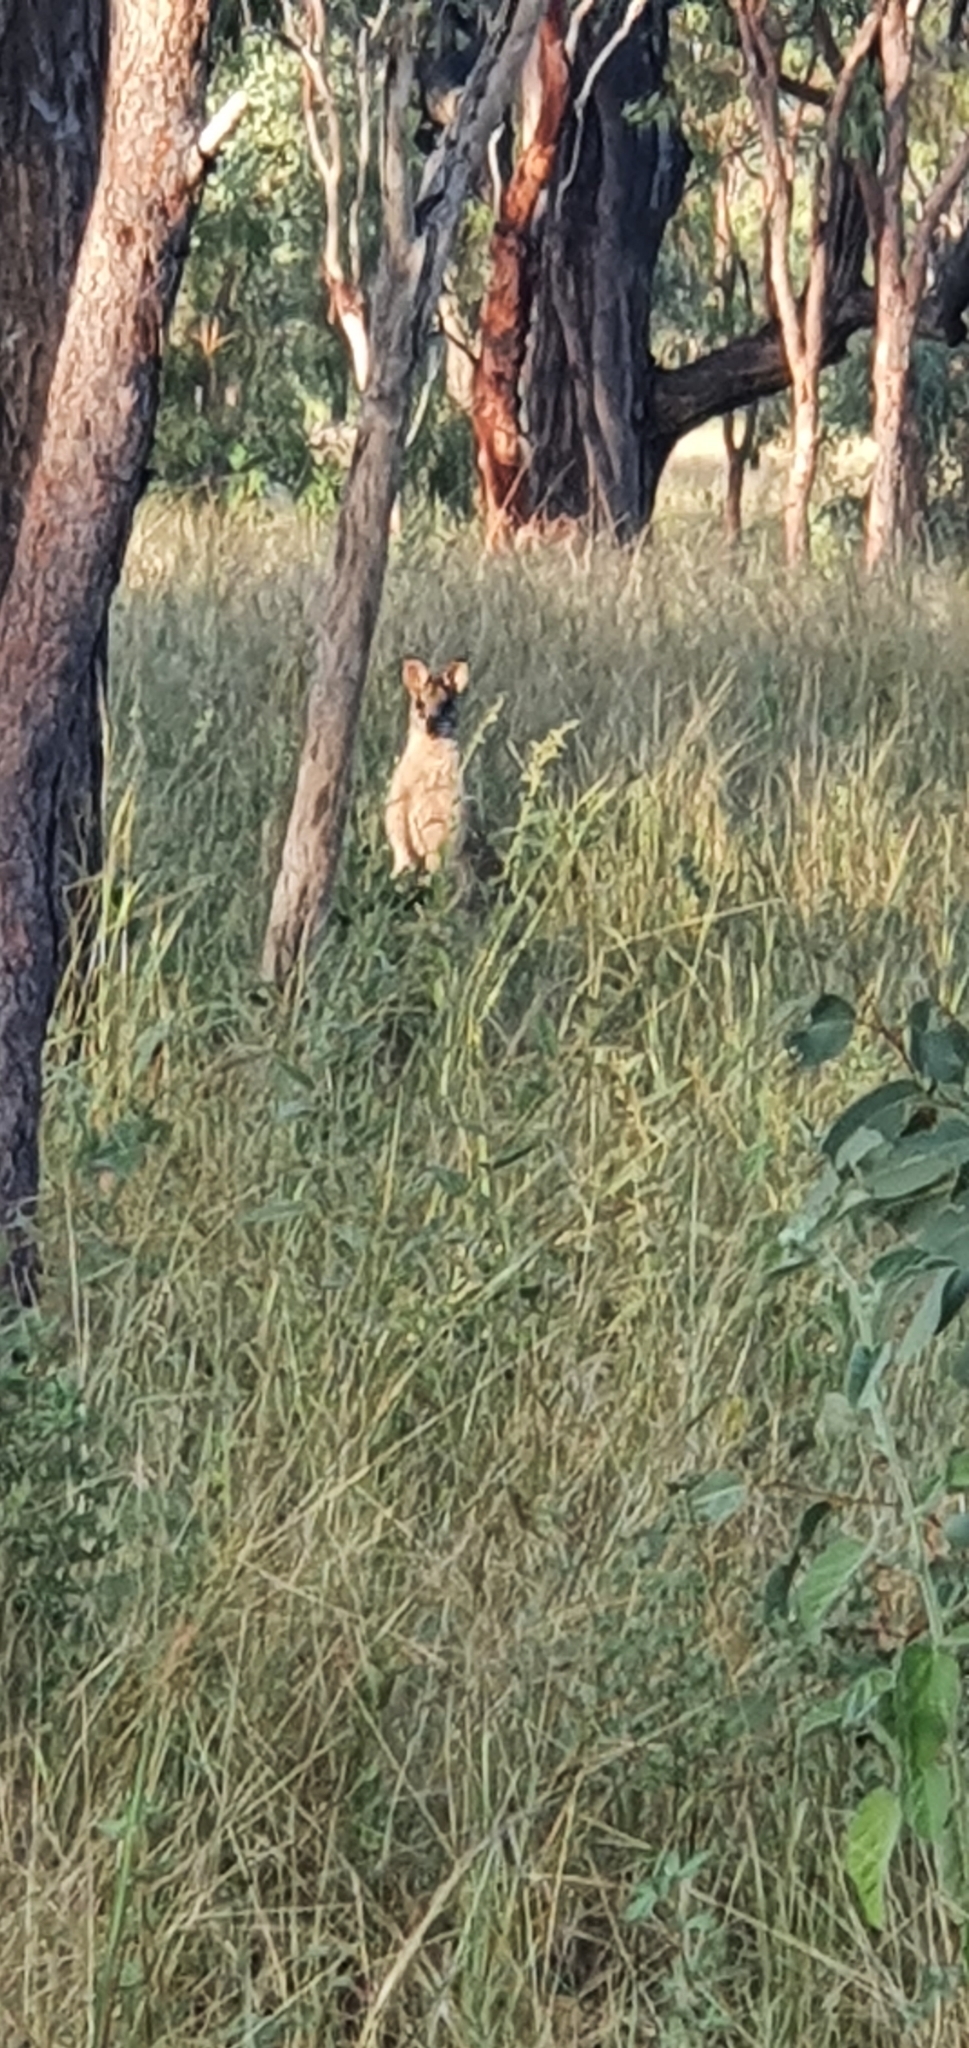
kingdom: Animalia
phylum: Chordata
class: Mammalia
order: Diprotodontia
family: Macropodidae
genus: Macropus
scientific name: Macropus agilis
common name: Agile wallaby
